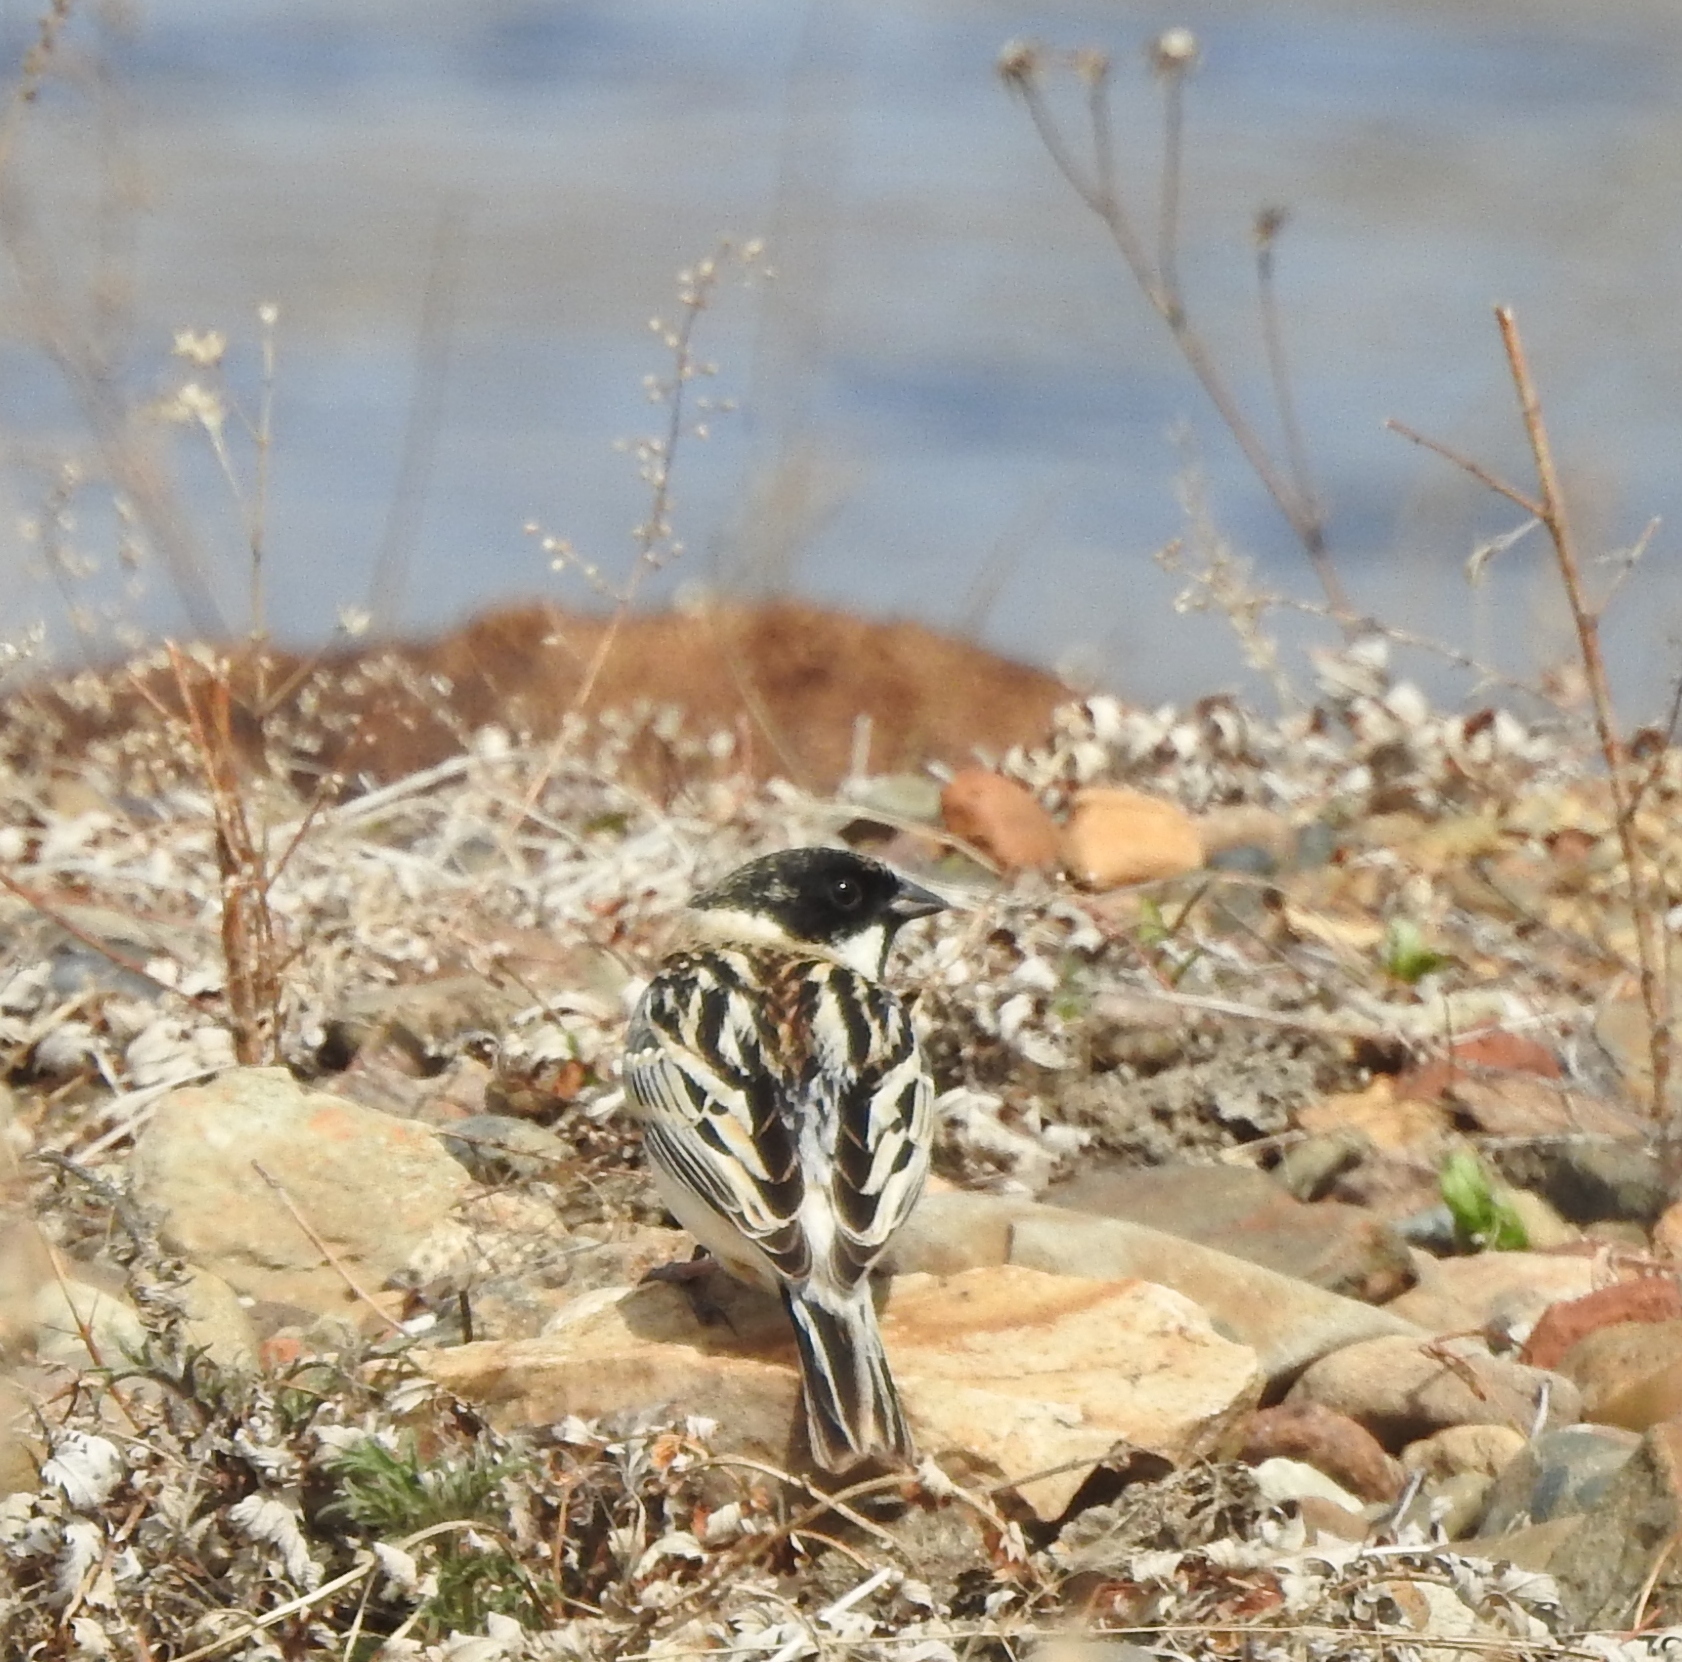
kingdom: Animalia
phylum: Chordata
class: Aves
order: Passeriformes
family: Emberizidae
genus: Emberiza
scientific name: Emberiza schoeniclus
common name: Reed bunting
